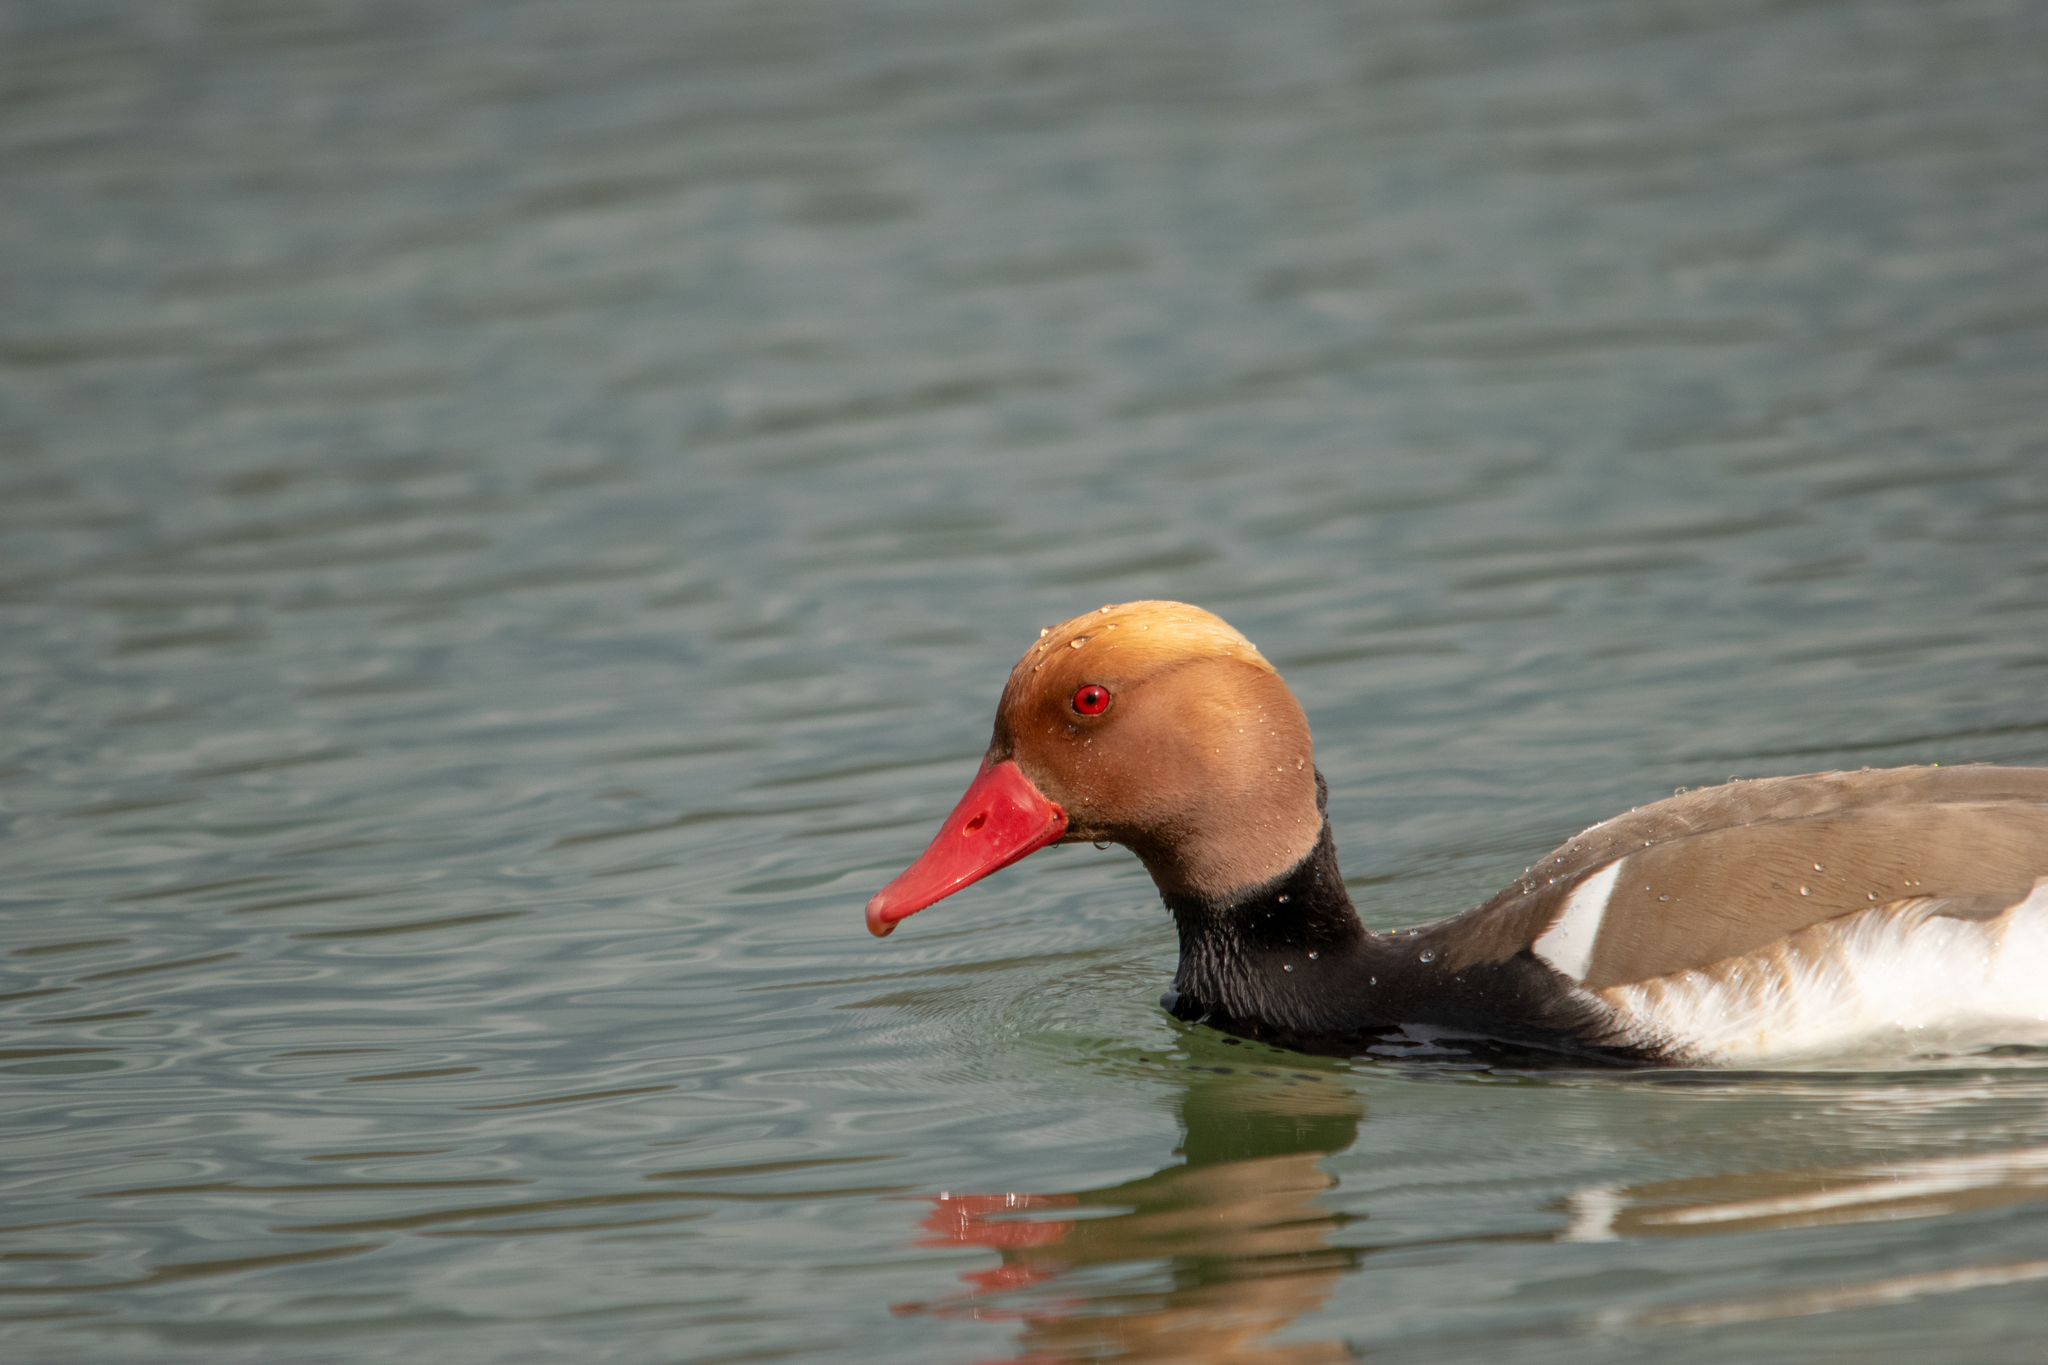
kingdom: Animalia
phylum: Chordata
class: Aves
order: Anseriformes
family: Anatidae
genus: Netta
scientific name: Netta rufina
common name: Red-crested pochard
